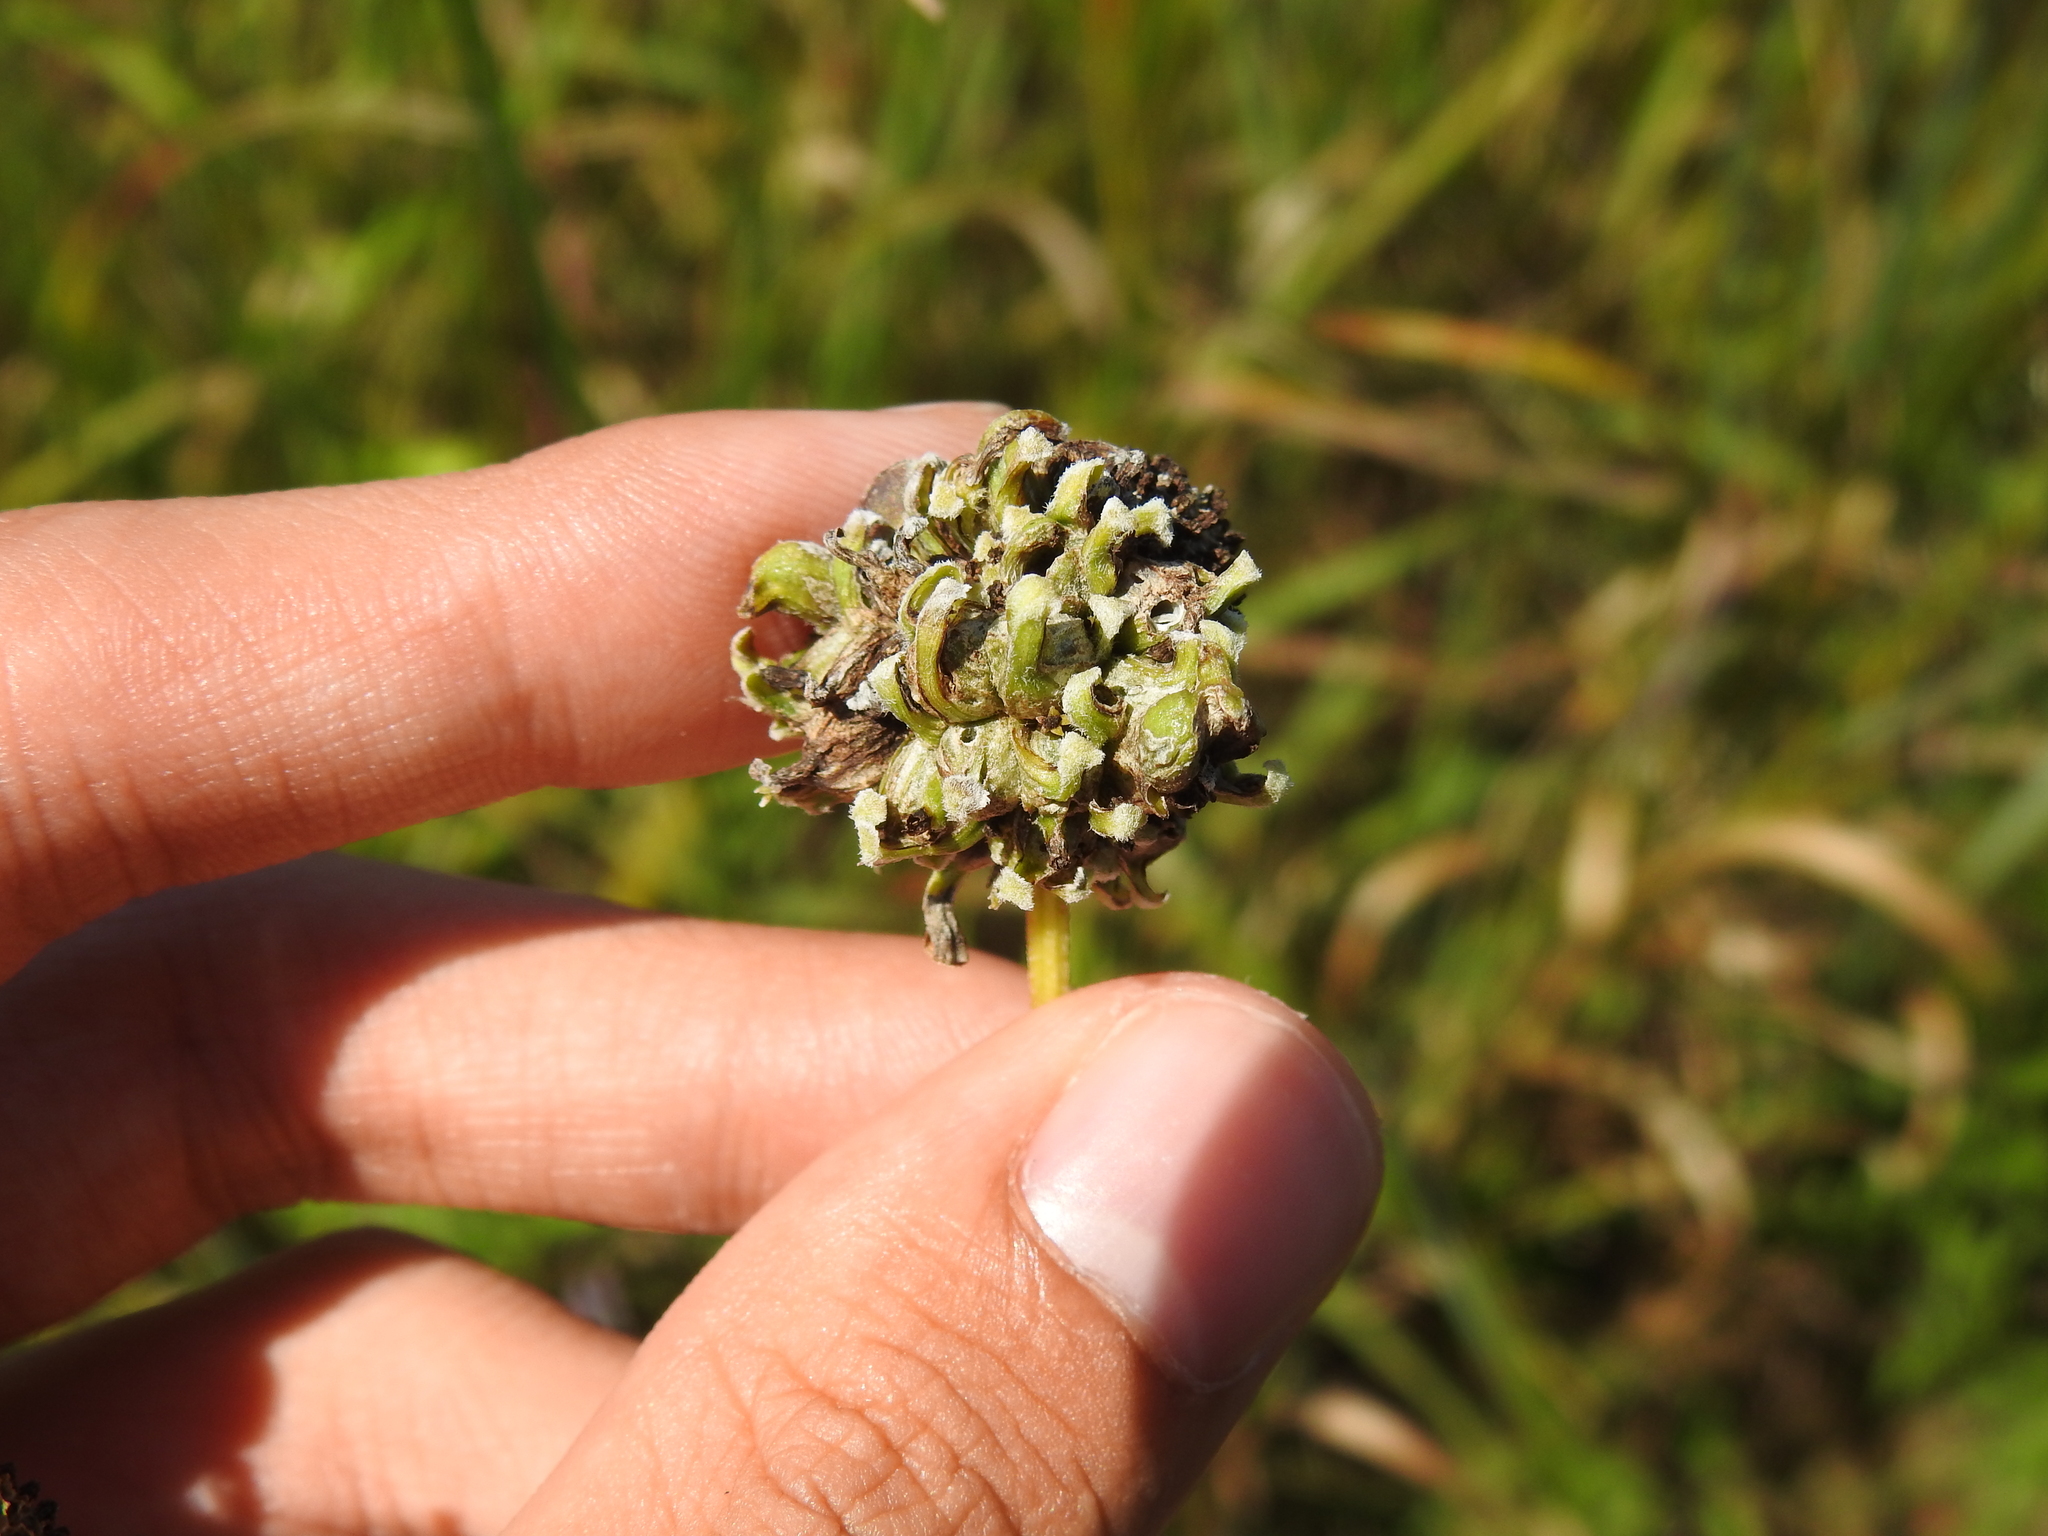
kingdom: Animalia
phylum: Arthropoda
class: Insecta
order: Diptera
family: Cecidomyiidae
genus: Asphondylia
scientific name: Asphondylia ratibidae
